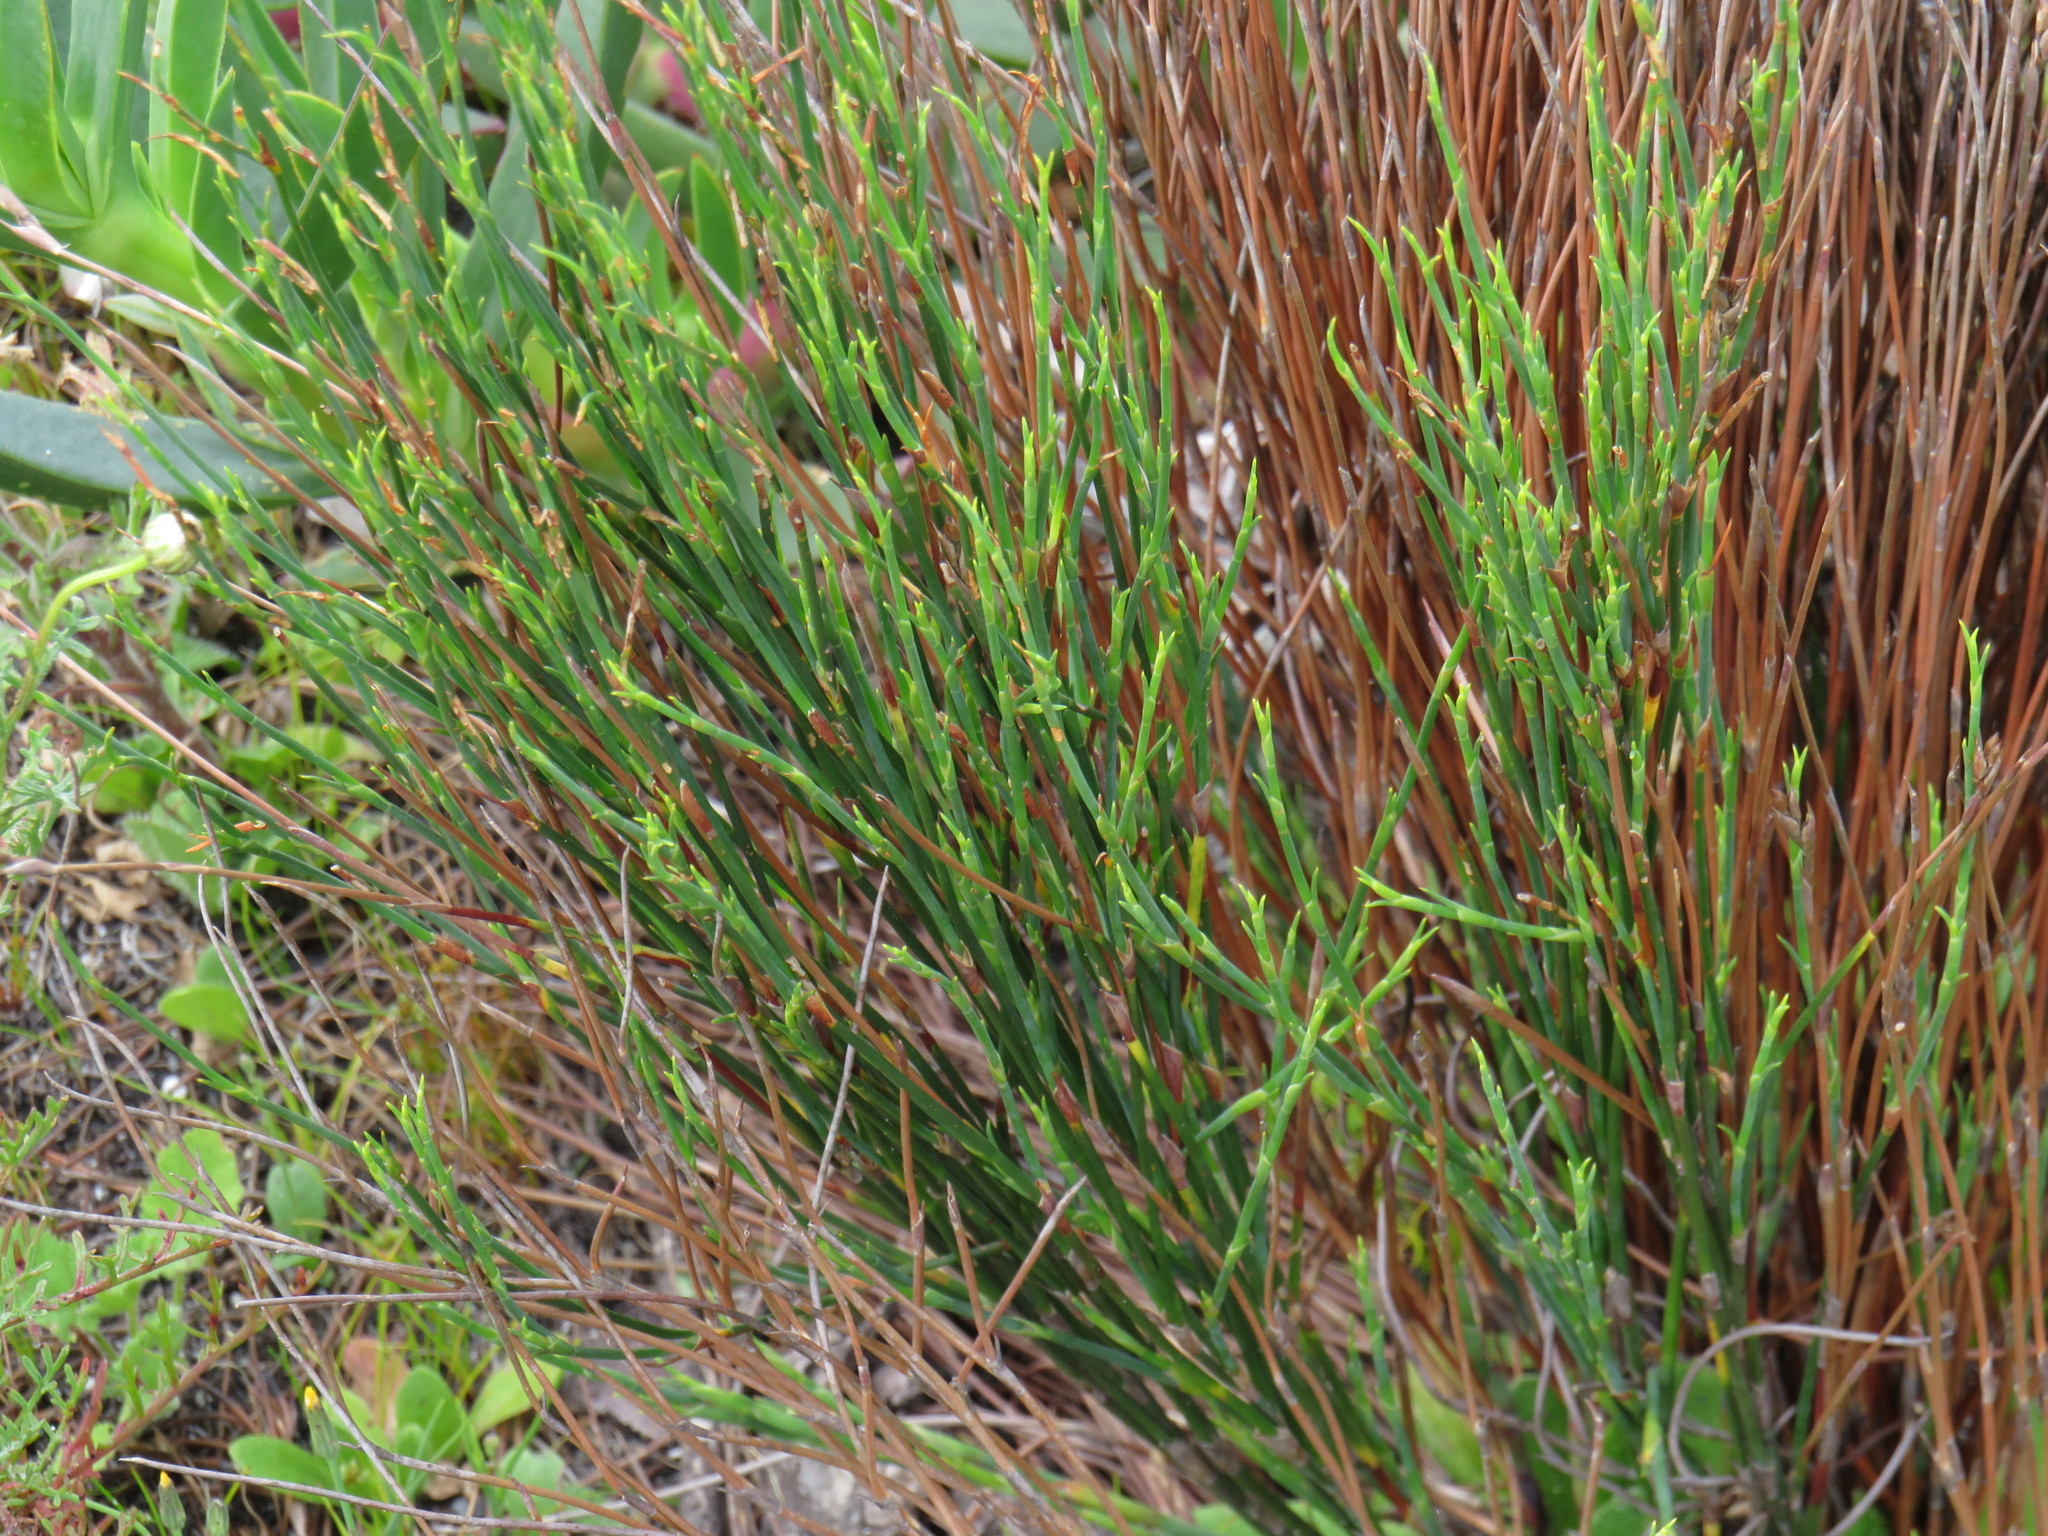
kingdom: Plantae
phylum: Tracheophyta
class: Liliopsida
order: Poales
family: Restionaceae
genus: Restio
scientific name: Restio capensis
